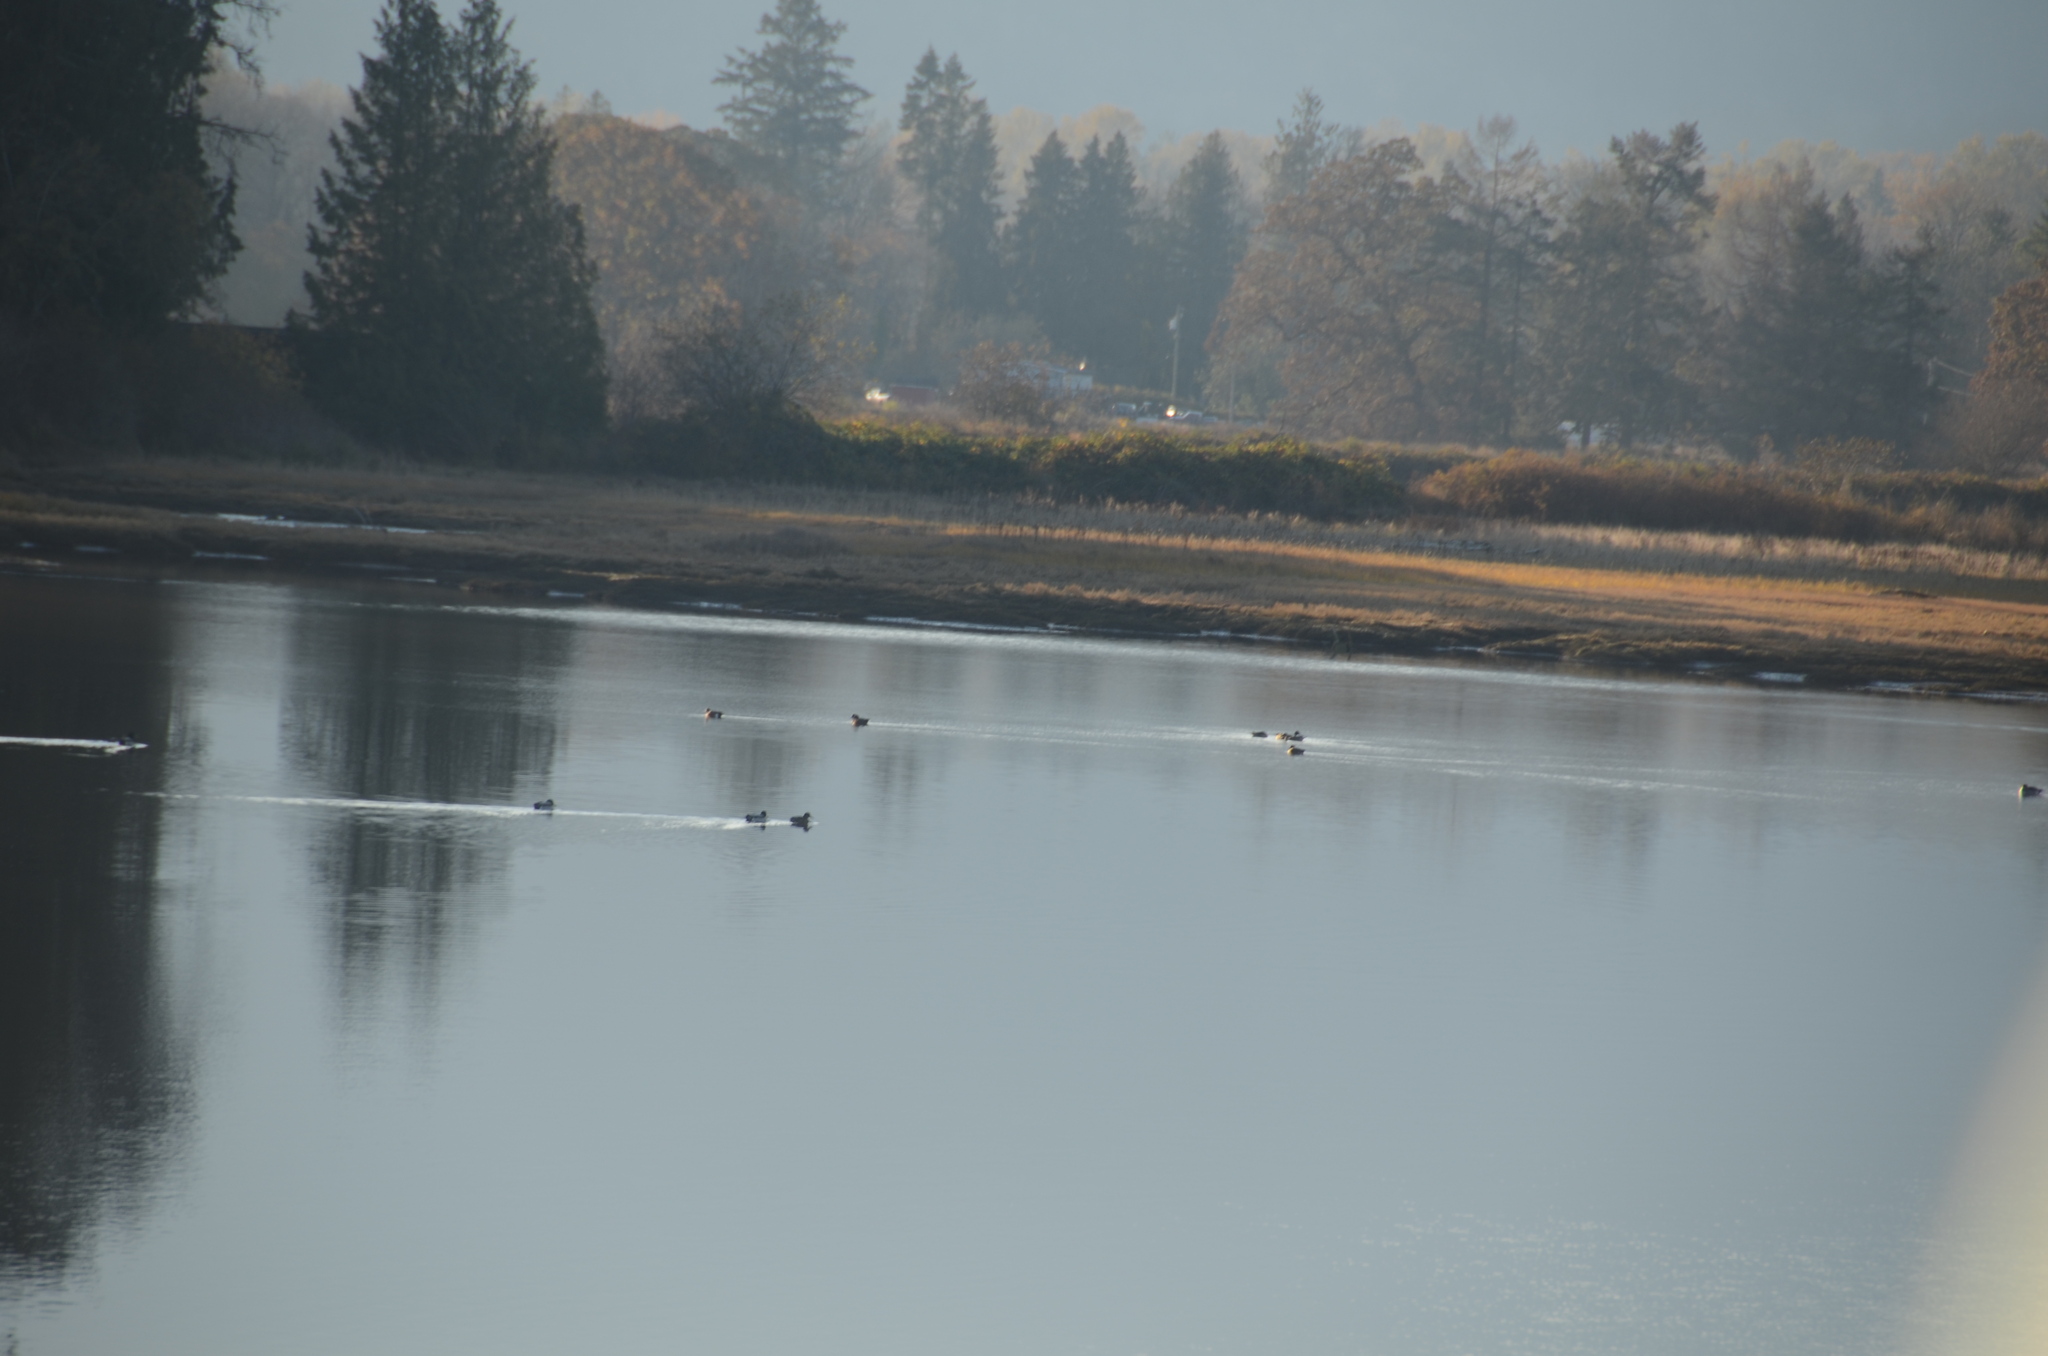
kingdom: Animalia
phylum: Chordata
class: Aves
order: Anseriformes
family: Anatidae
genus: Mareca
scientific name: Mareca americana
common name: American wigeon
